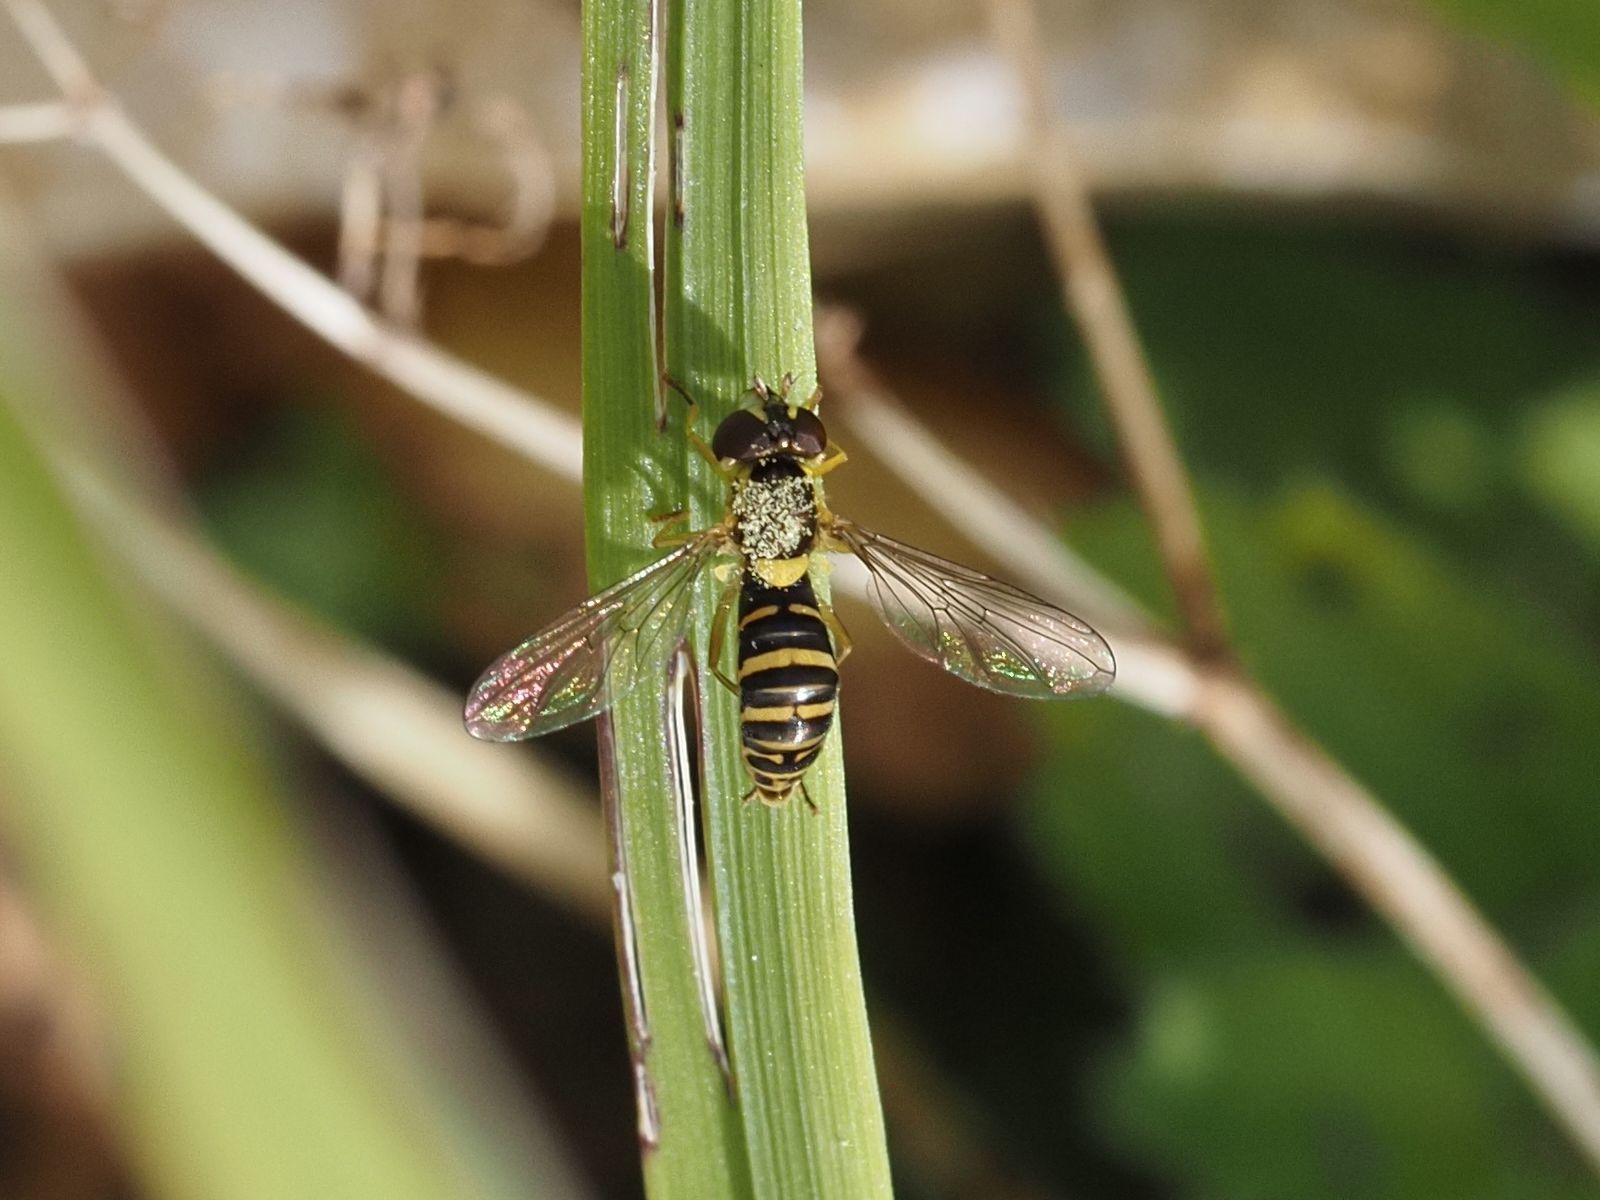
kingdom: Animalia
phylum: Arthropoda
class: Insecta
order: Diptera
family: Syrphidae
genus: Sphaerophoria
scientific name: Sphaerophoria
